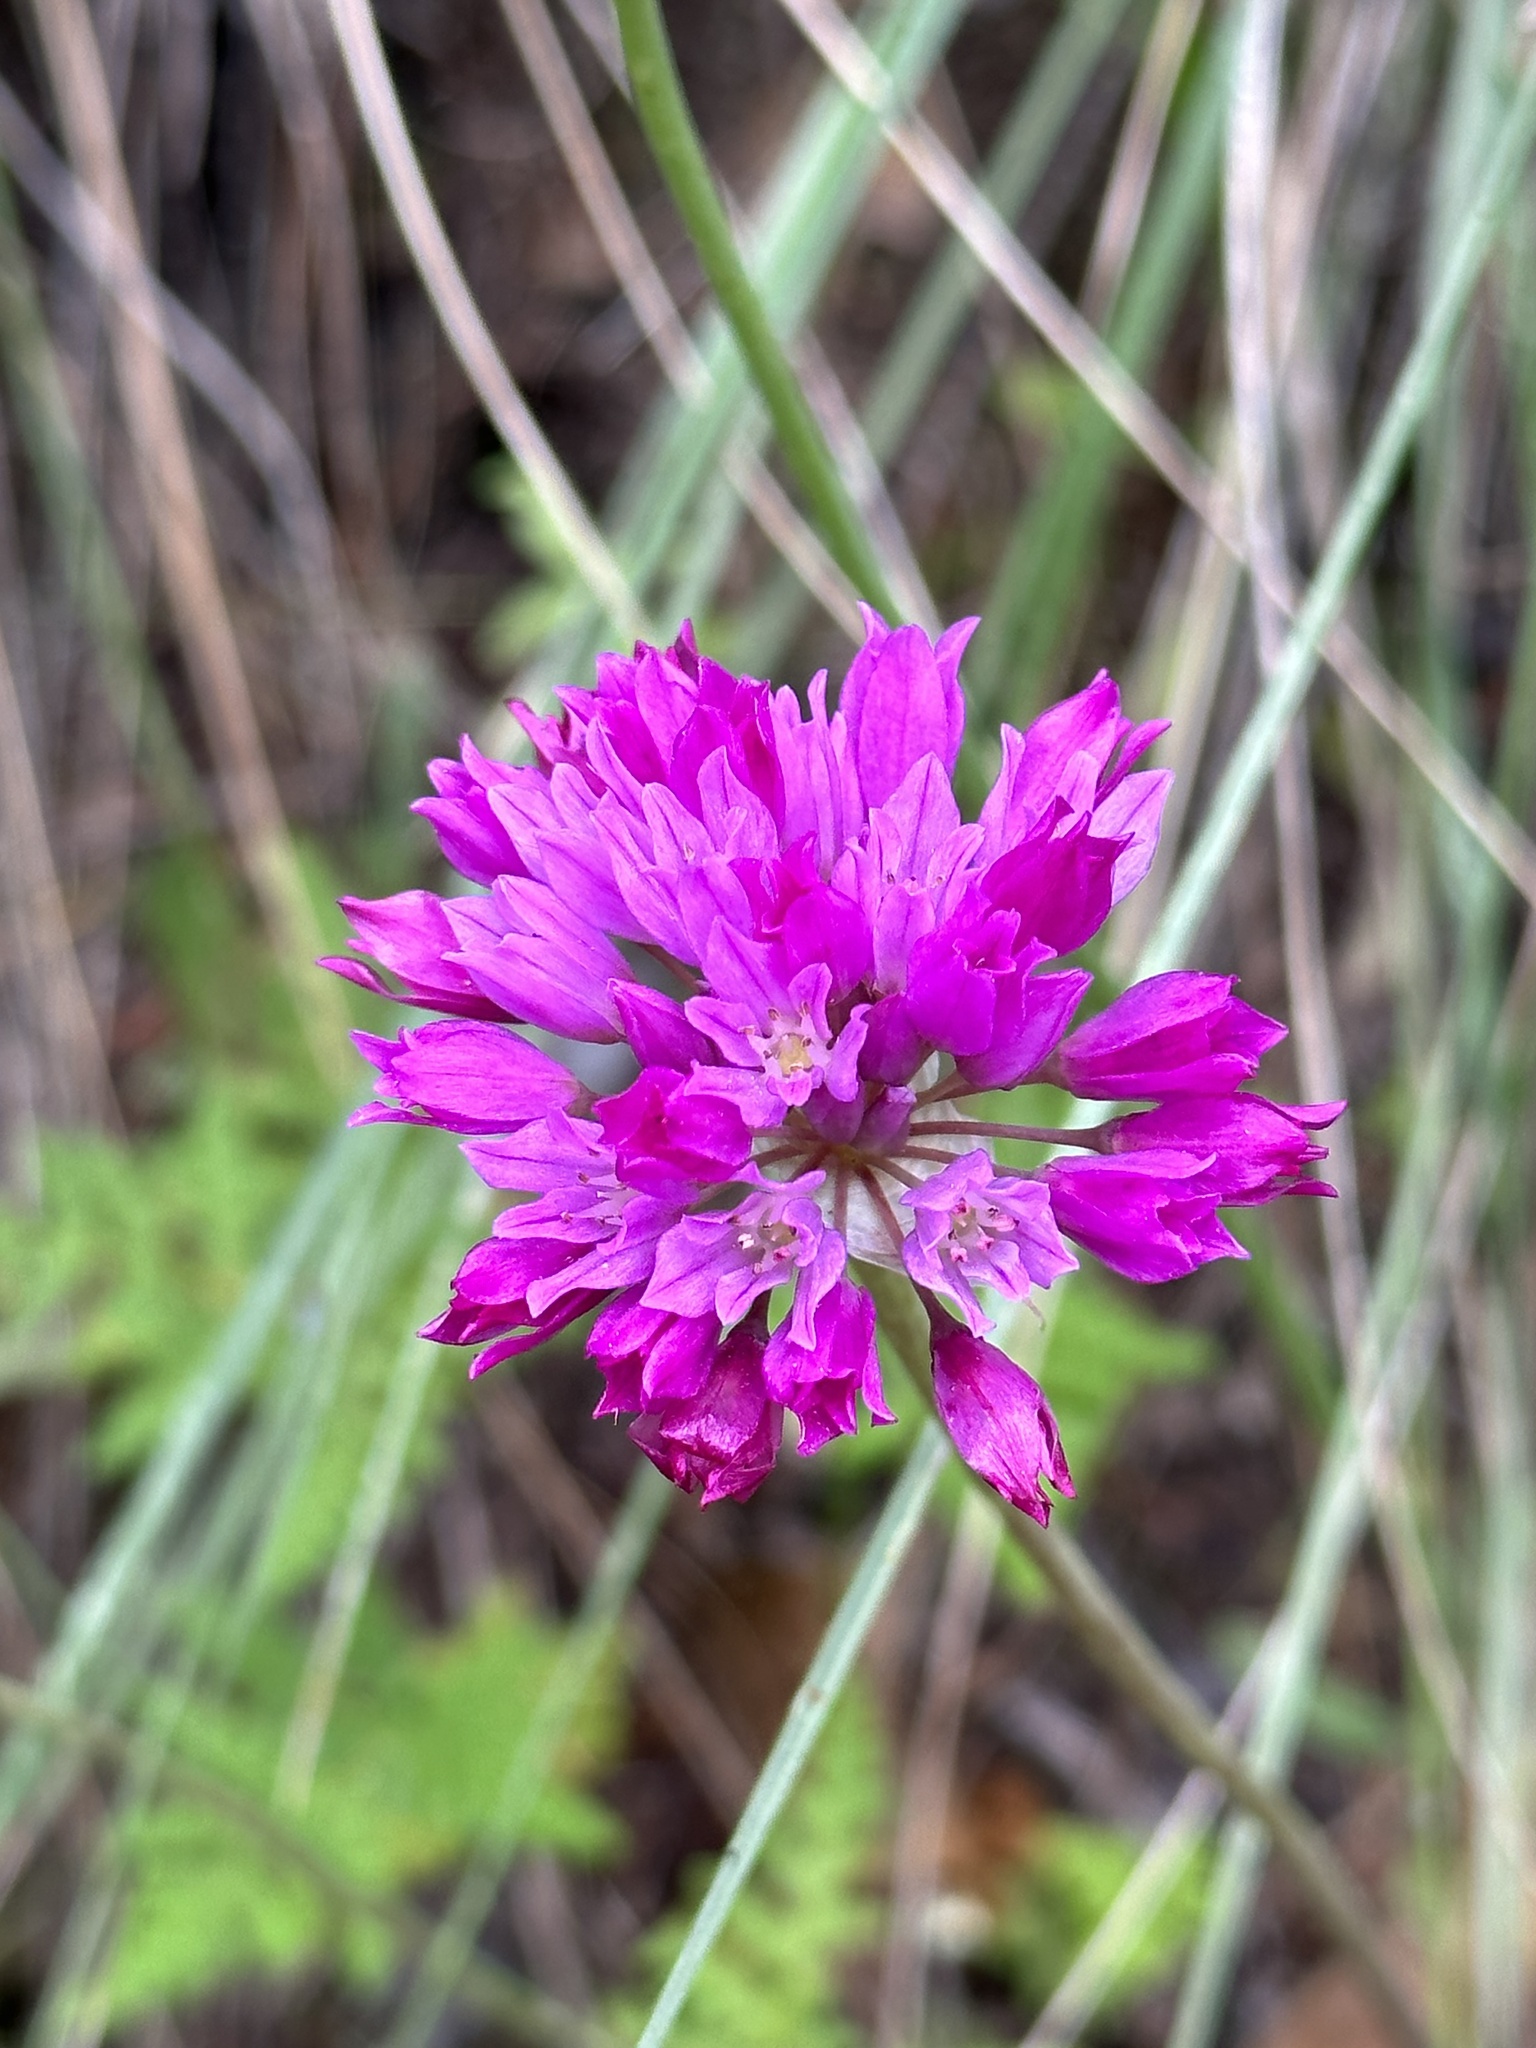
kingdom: Plantae
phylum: Tracheophyta
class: Liliopsida
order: Asparagales
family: Amaryllidaceae
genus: Allium
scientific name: Allium serra
